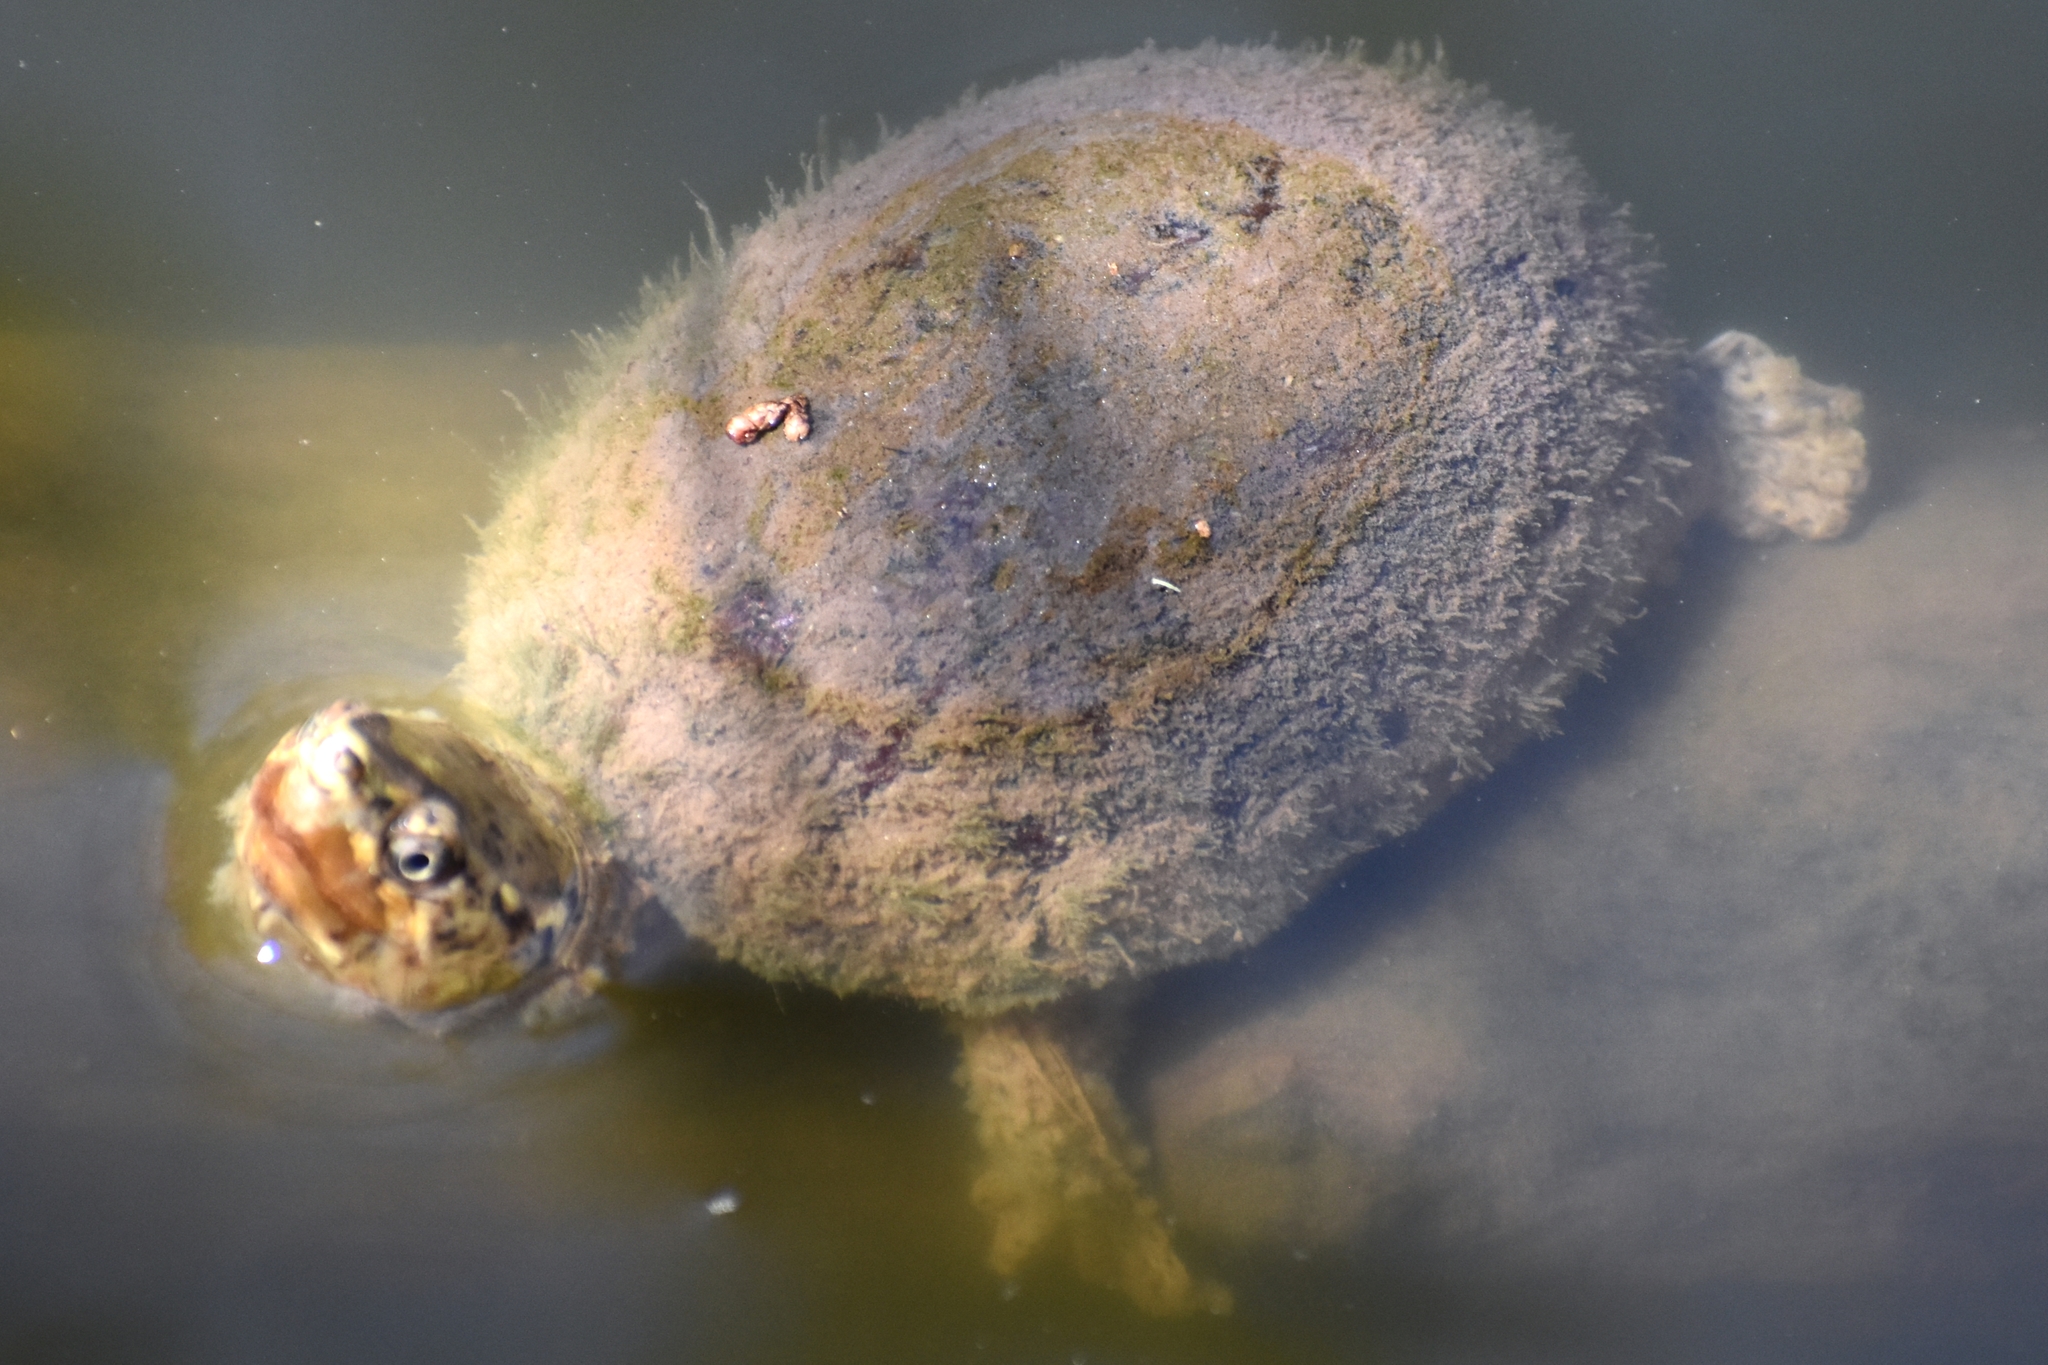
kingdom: Animalia
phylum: Chordata
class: Testudines
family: Kinosternidae
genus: Sternotherus
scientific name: Sternotherus odoratus
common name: Common musk turtle
